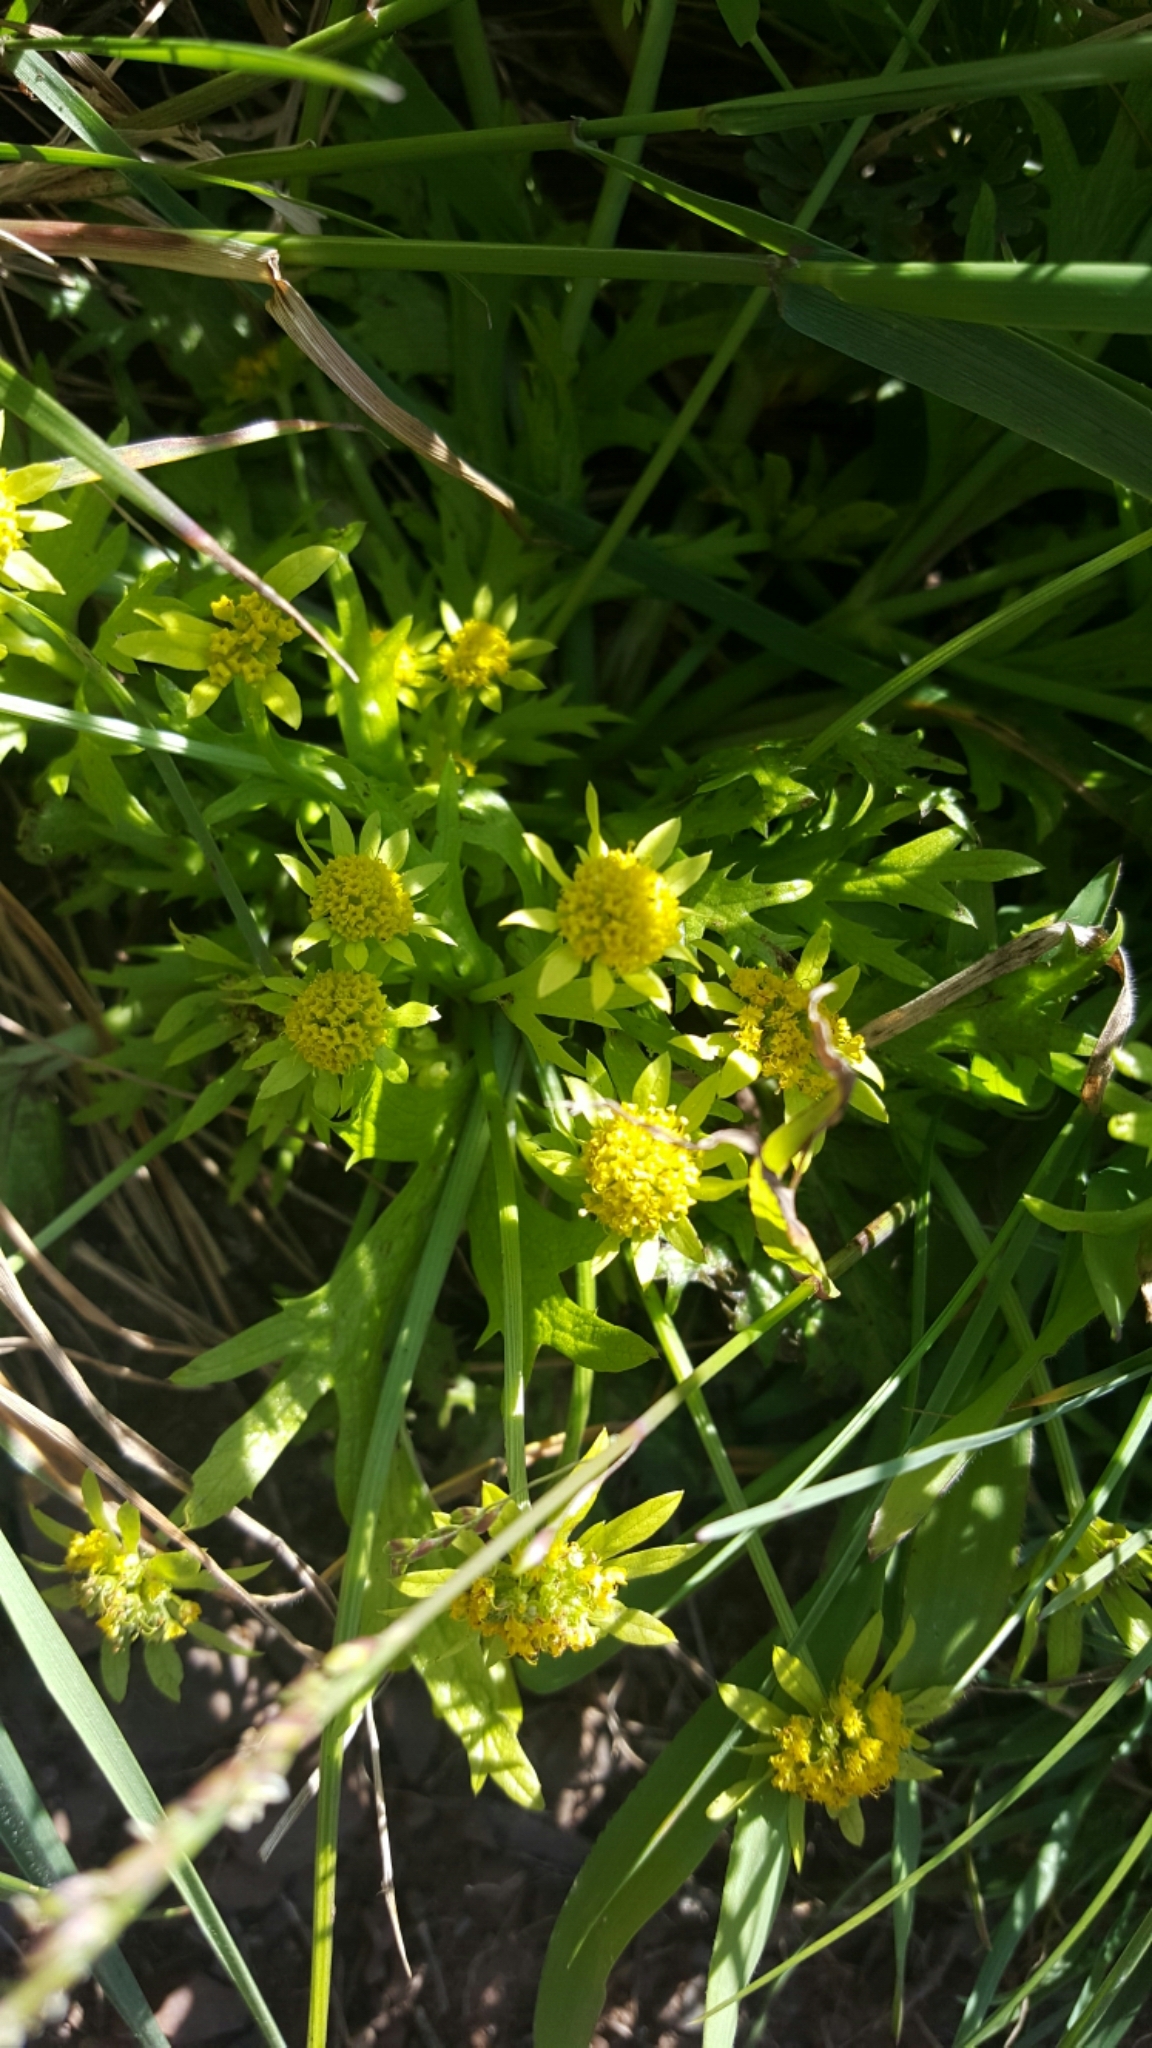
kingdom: Plantae
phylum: Tracheophyta
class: Magnoliopsida
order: Apiales
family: Apiaceae
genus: Sanicula
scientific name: Sanicula arctopoides
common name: Footsteps-of-spring
